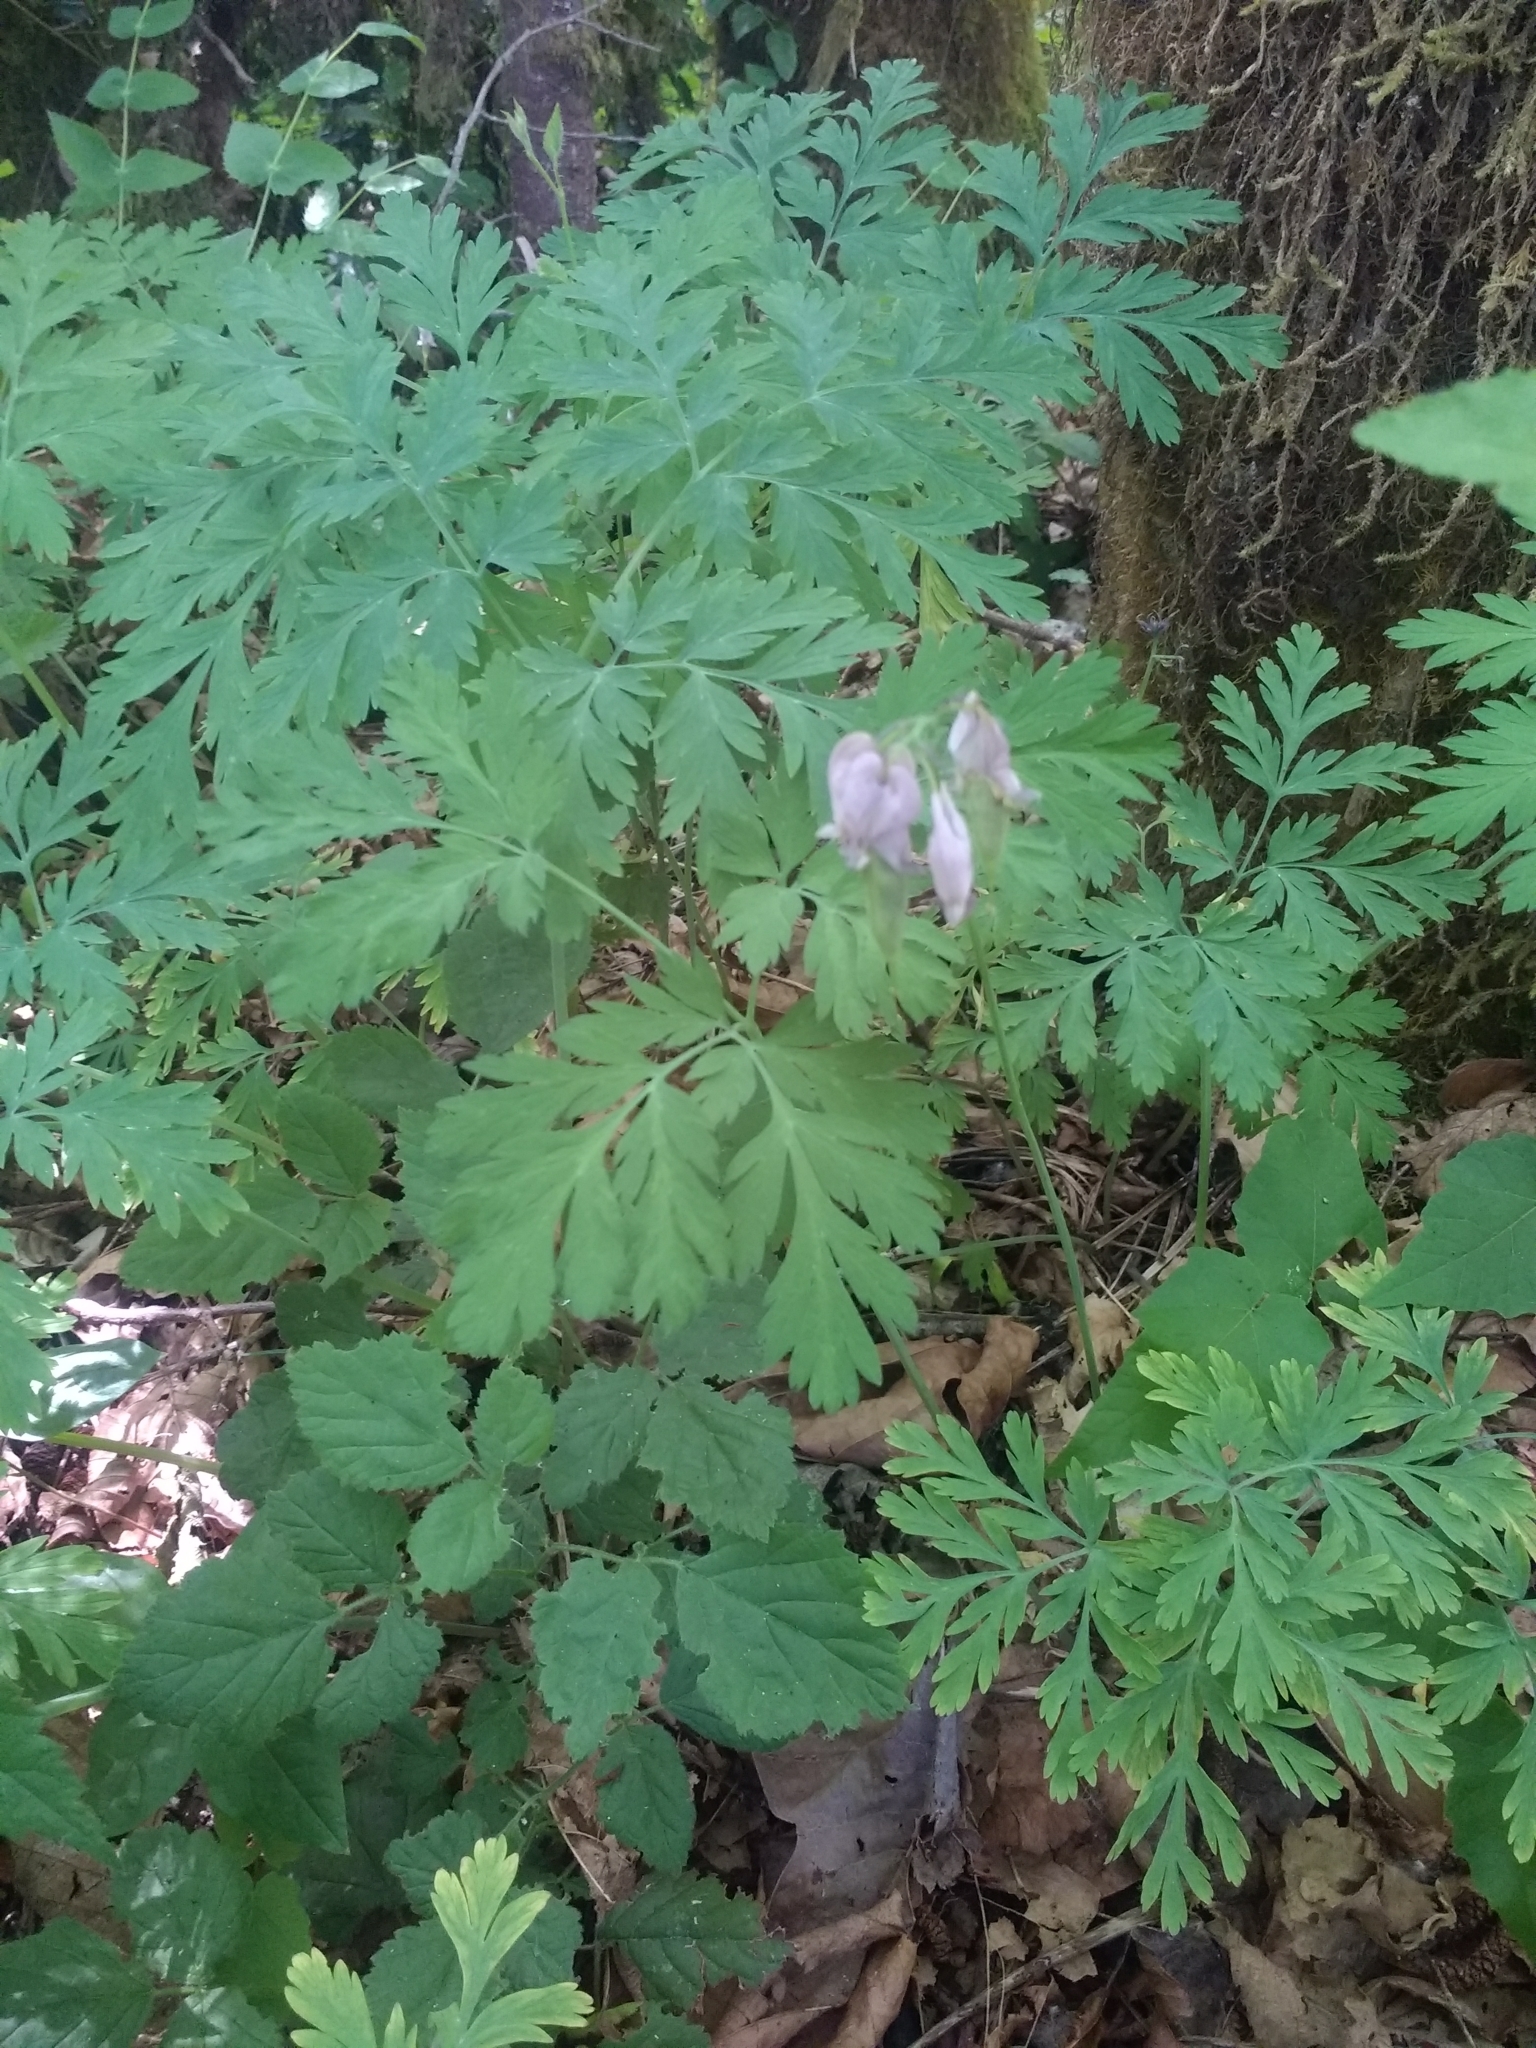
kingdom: Plantae
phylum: Tracheophyta
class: Magnoliopsida
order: Ranunculales
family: Papaveraceae
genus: Dicentra
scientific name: Dicentra formosa
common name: Bleeding-heart
